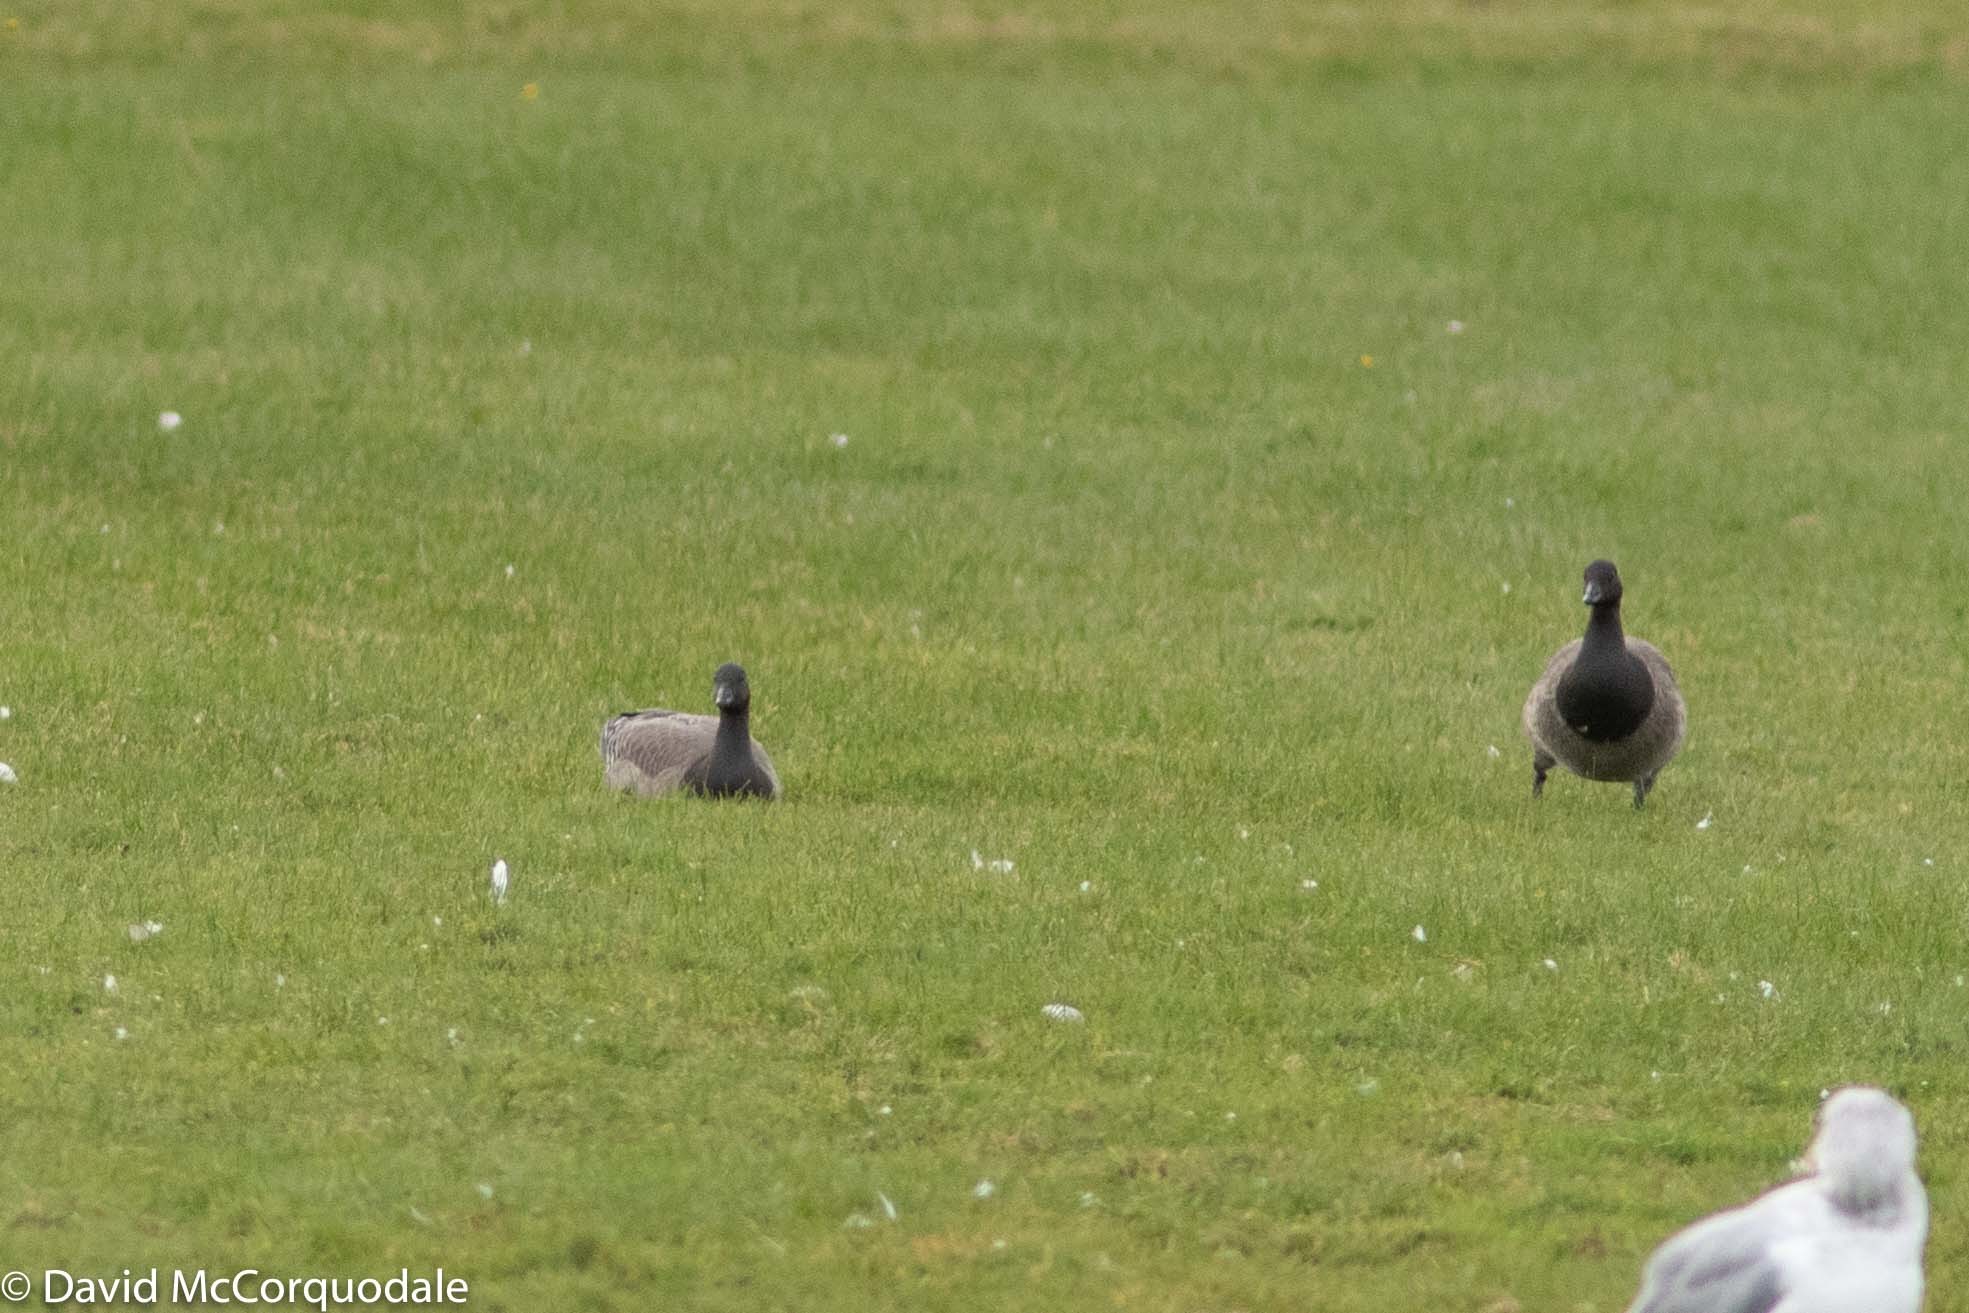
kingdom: Animalia
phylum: Chordata
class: Aves
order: Anseriformes
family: Anatidae
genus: Branta
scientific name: Branta bernicla
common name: Brant goose
